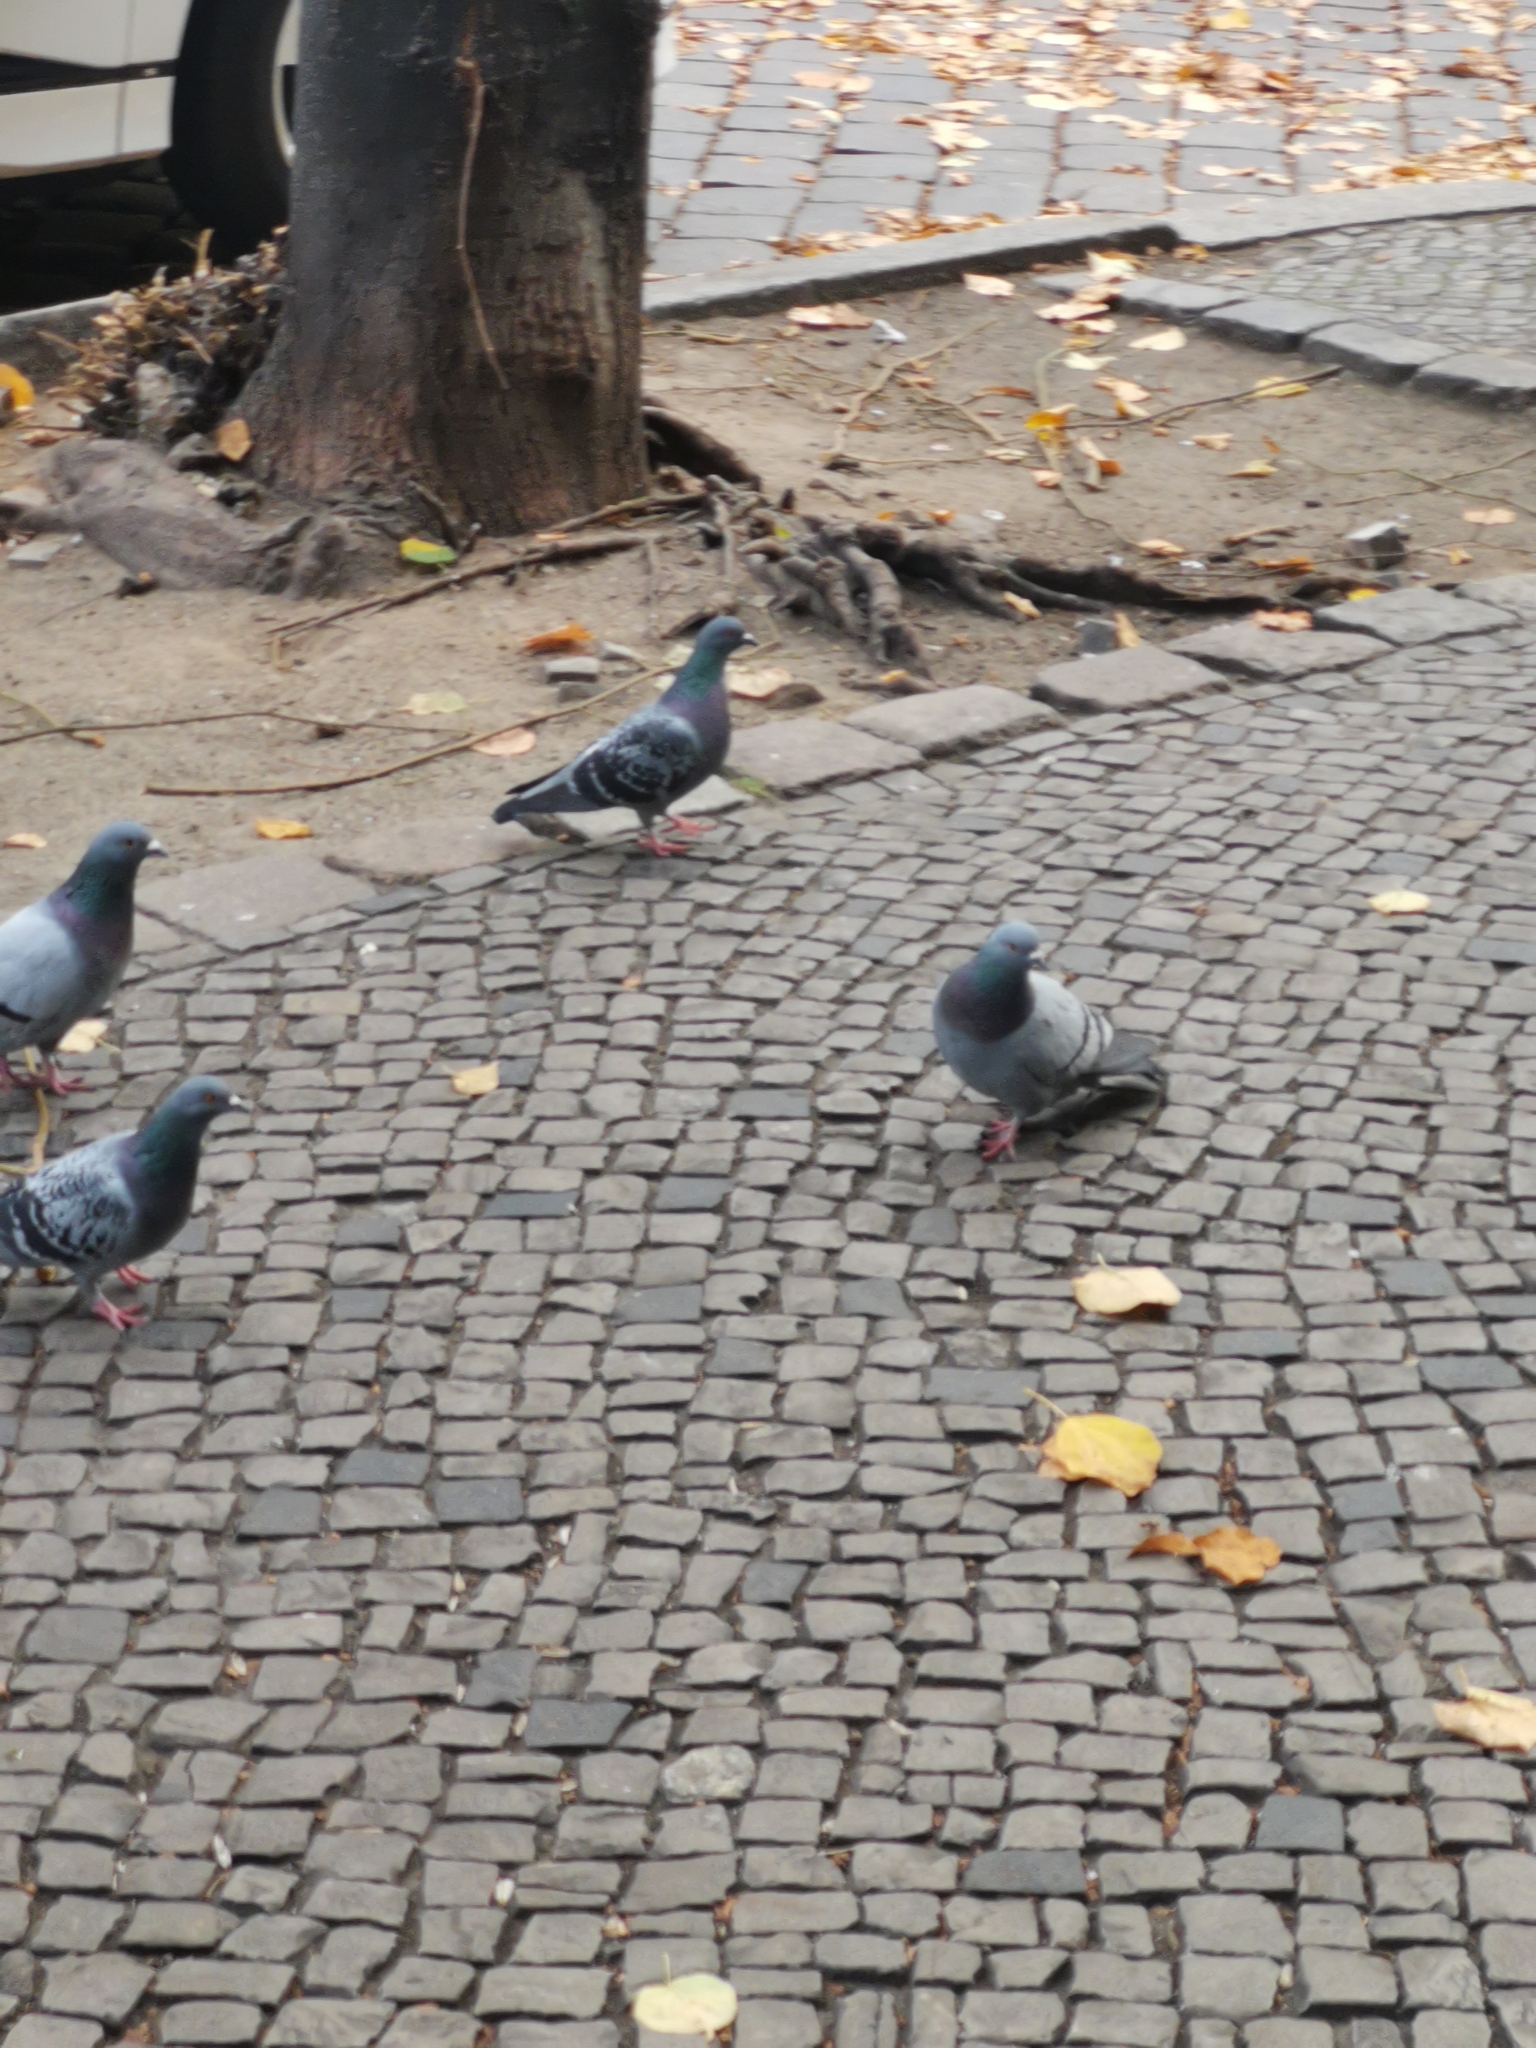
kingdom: Animalia
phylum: Chordata
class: Aves
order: Columbiformes
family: Columbidae
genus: Columba
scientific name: Columba livia
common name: Rock pigeon
